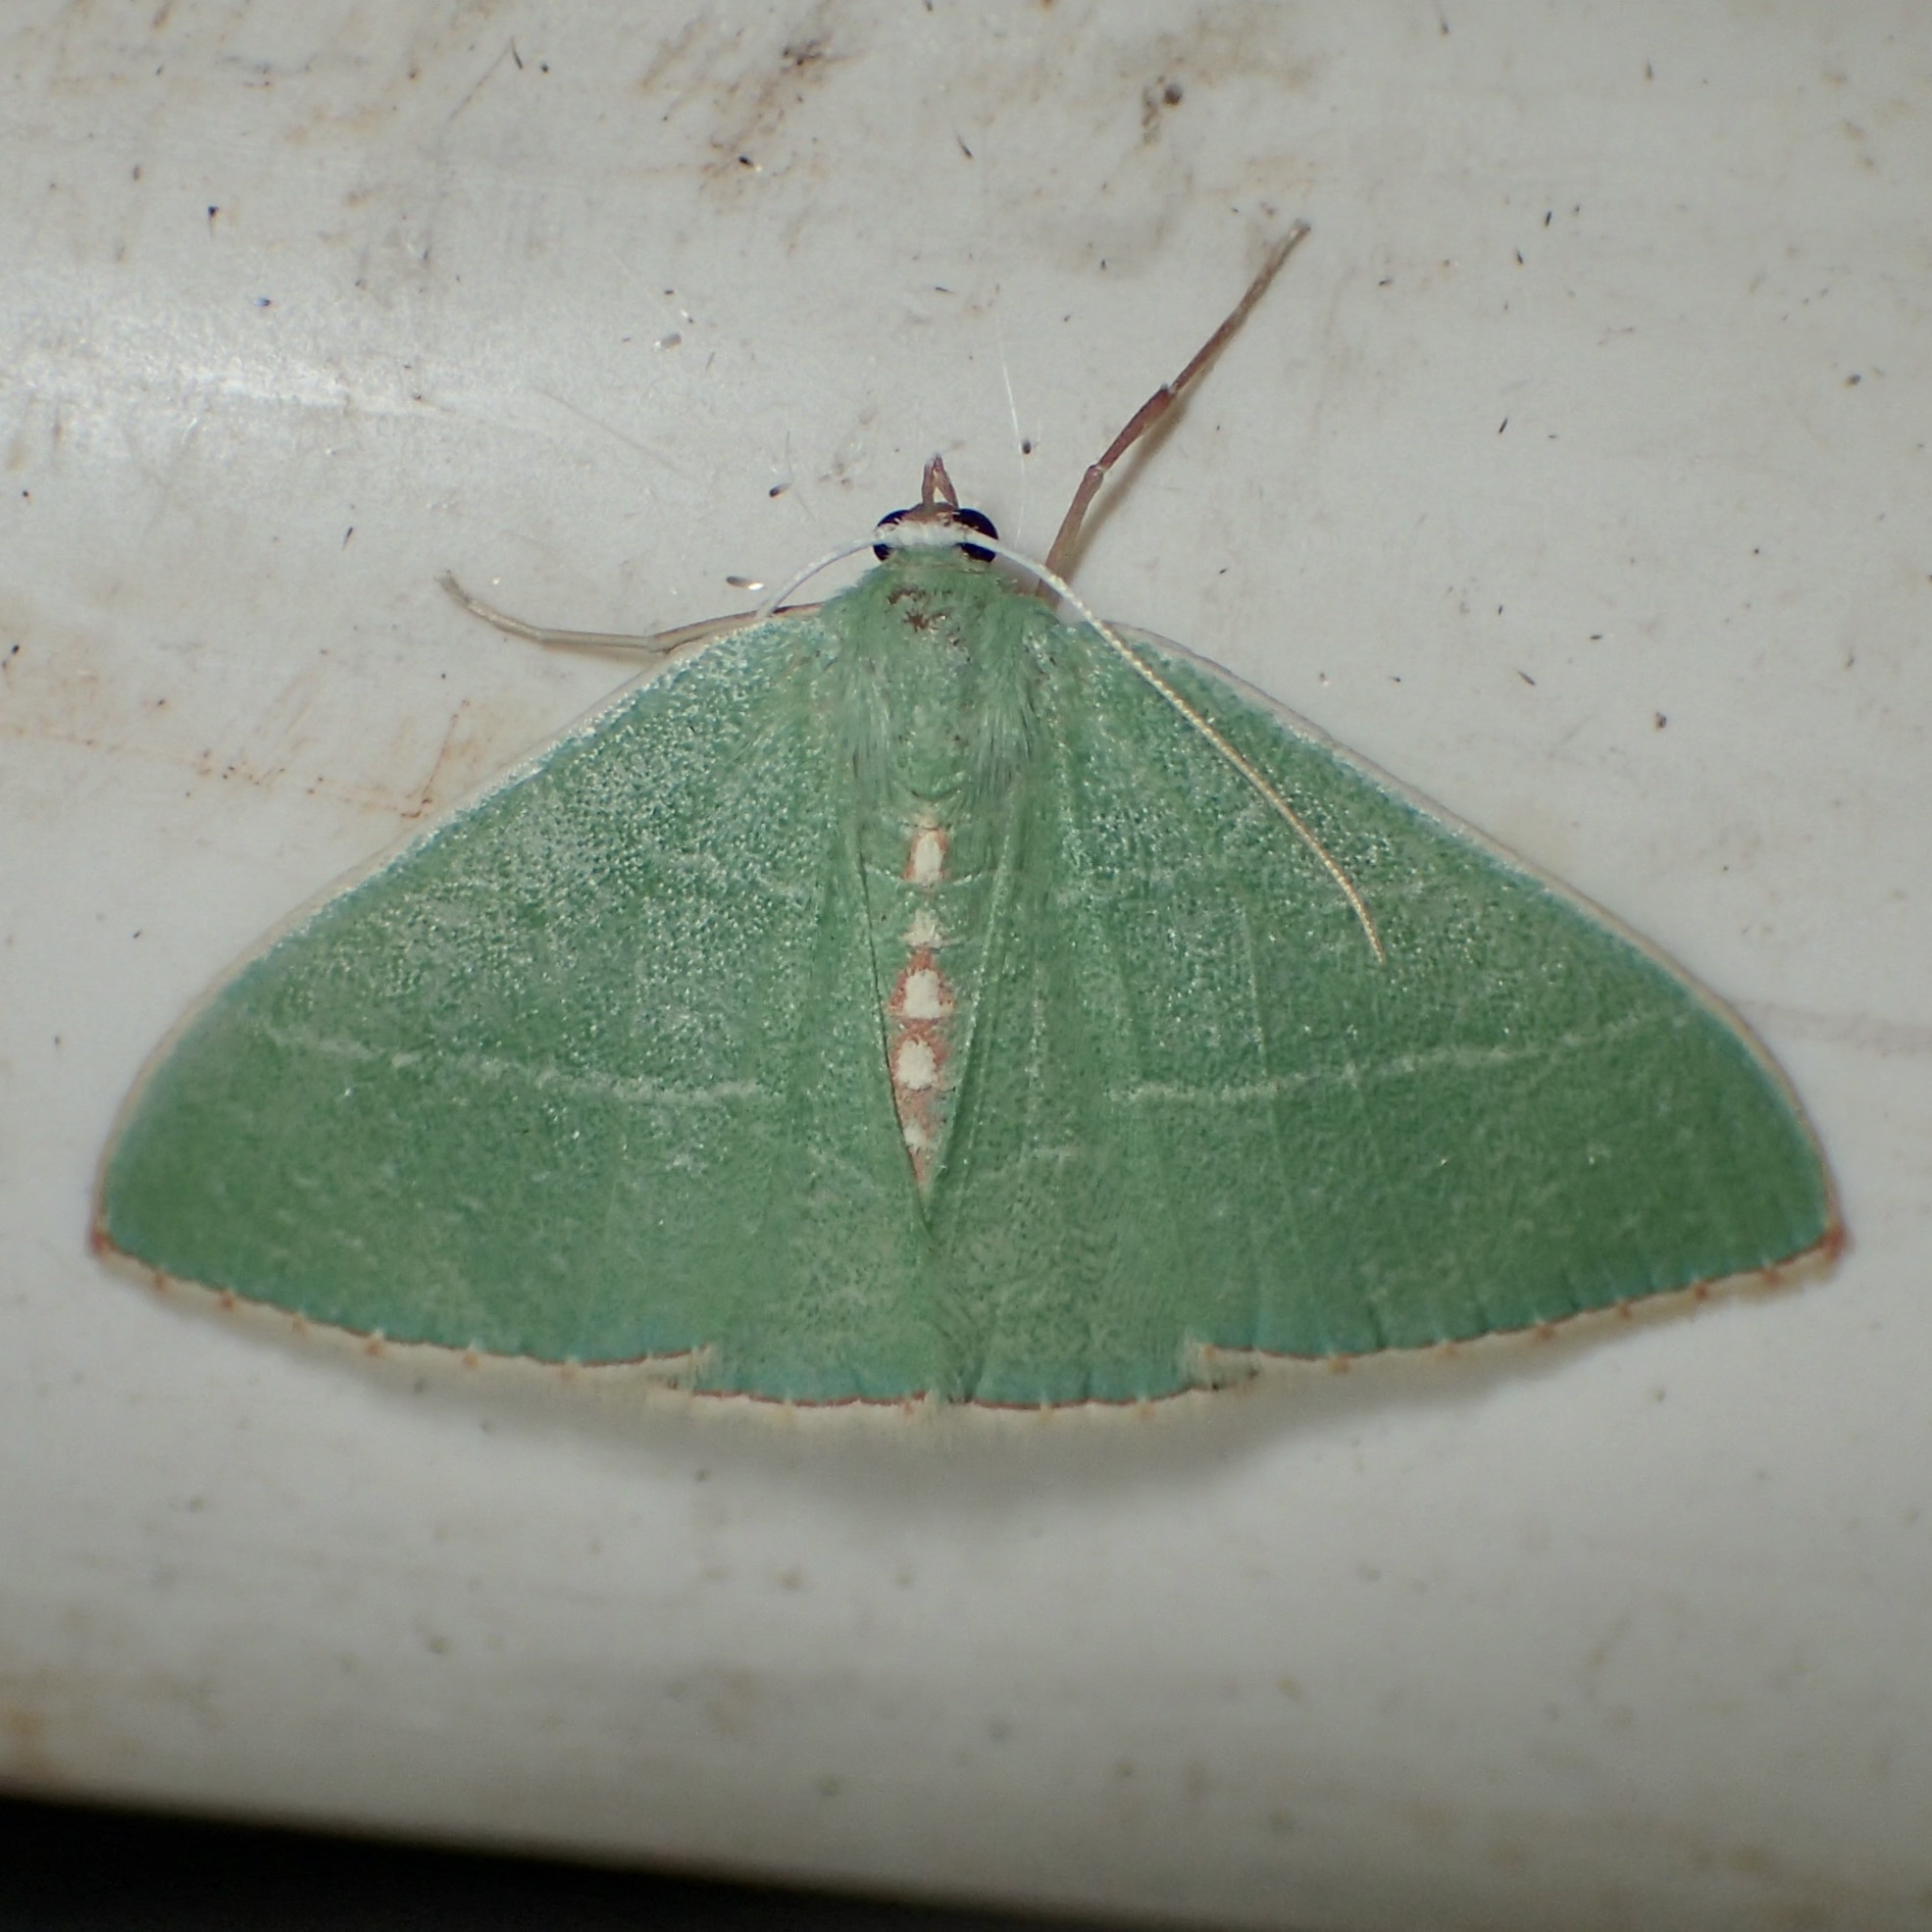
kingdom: Animalia
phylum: Arthropoda
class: Insecta
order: Lepidoptera
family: Geometridae
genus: Nemoria
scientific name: Nemoria festaria
